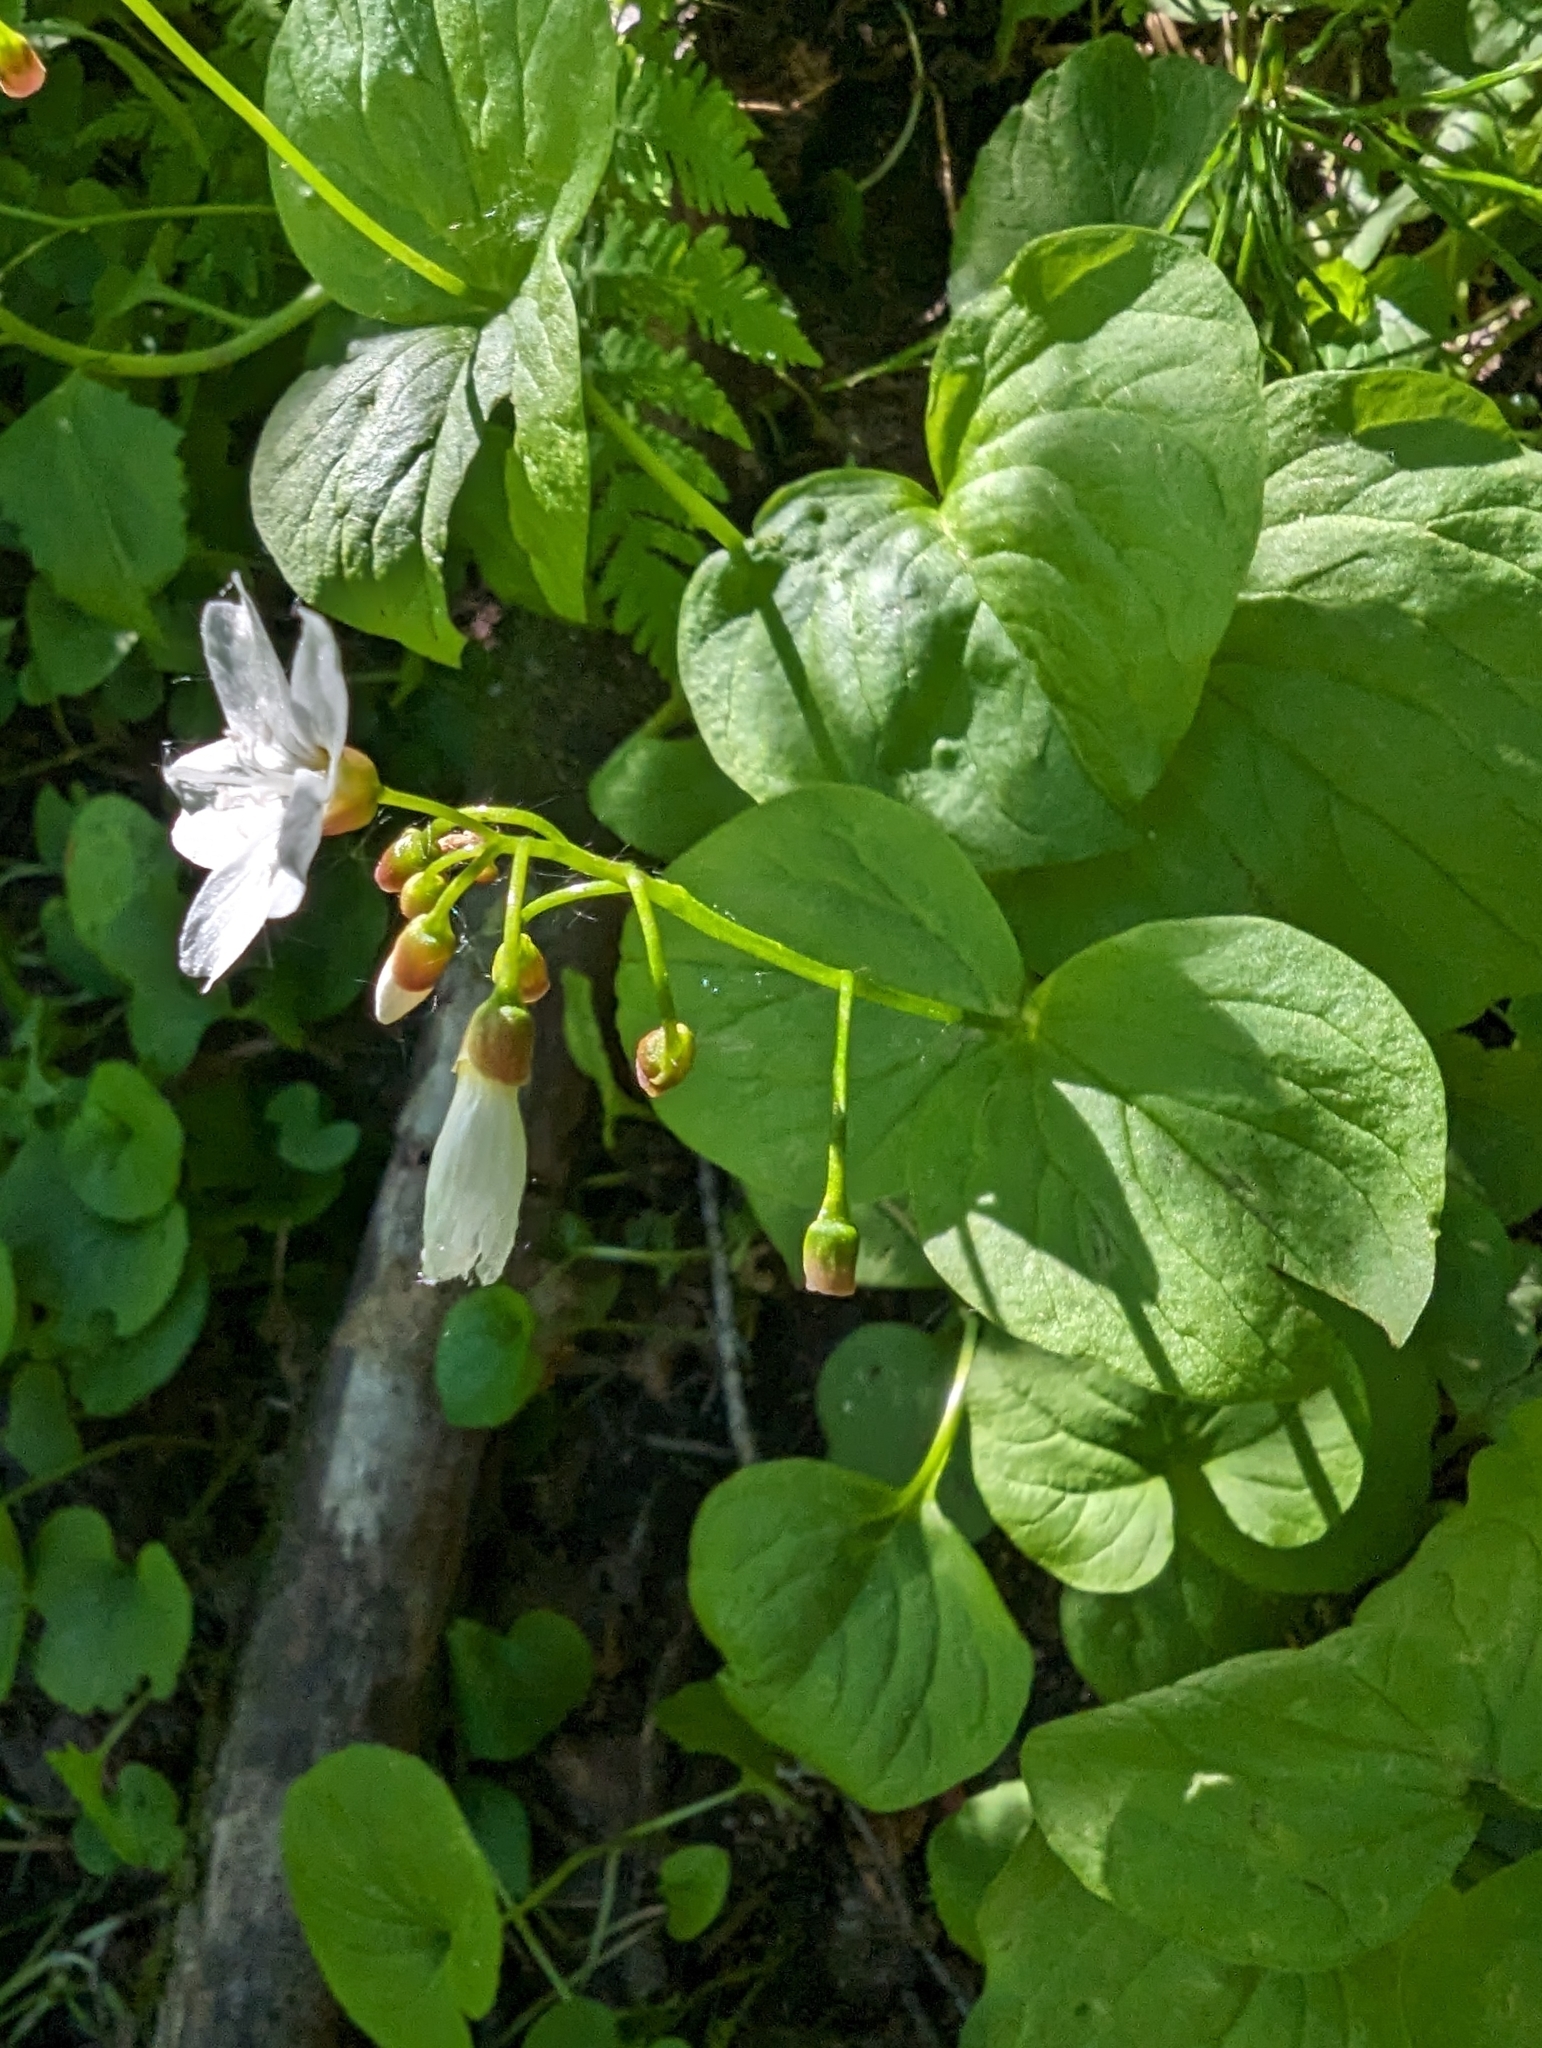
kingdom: Plantae
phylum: Tracheophyta
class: Magnoliopsida
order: Caryophyllales
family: Montiaceae
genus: Claytonia
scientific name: Claytonia cordifolia
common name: Broad-leaved spring beauty
